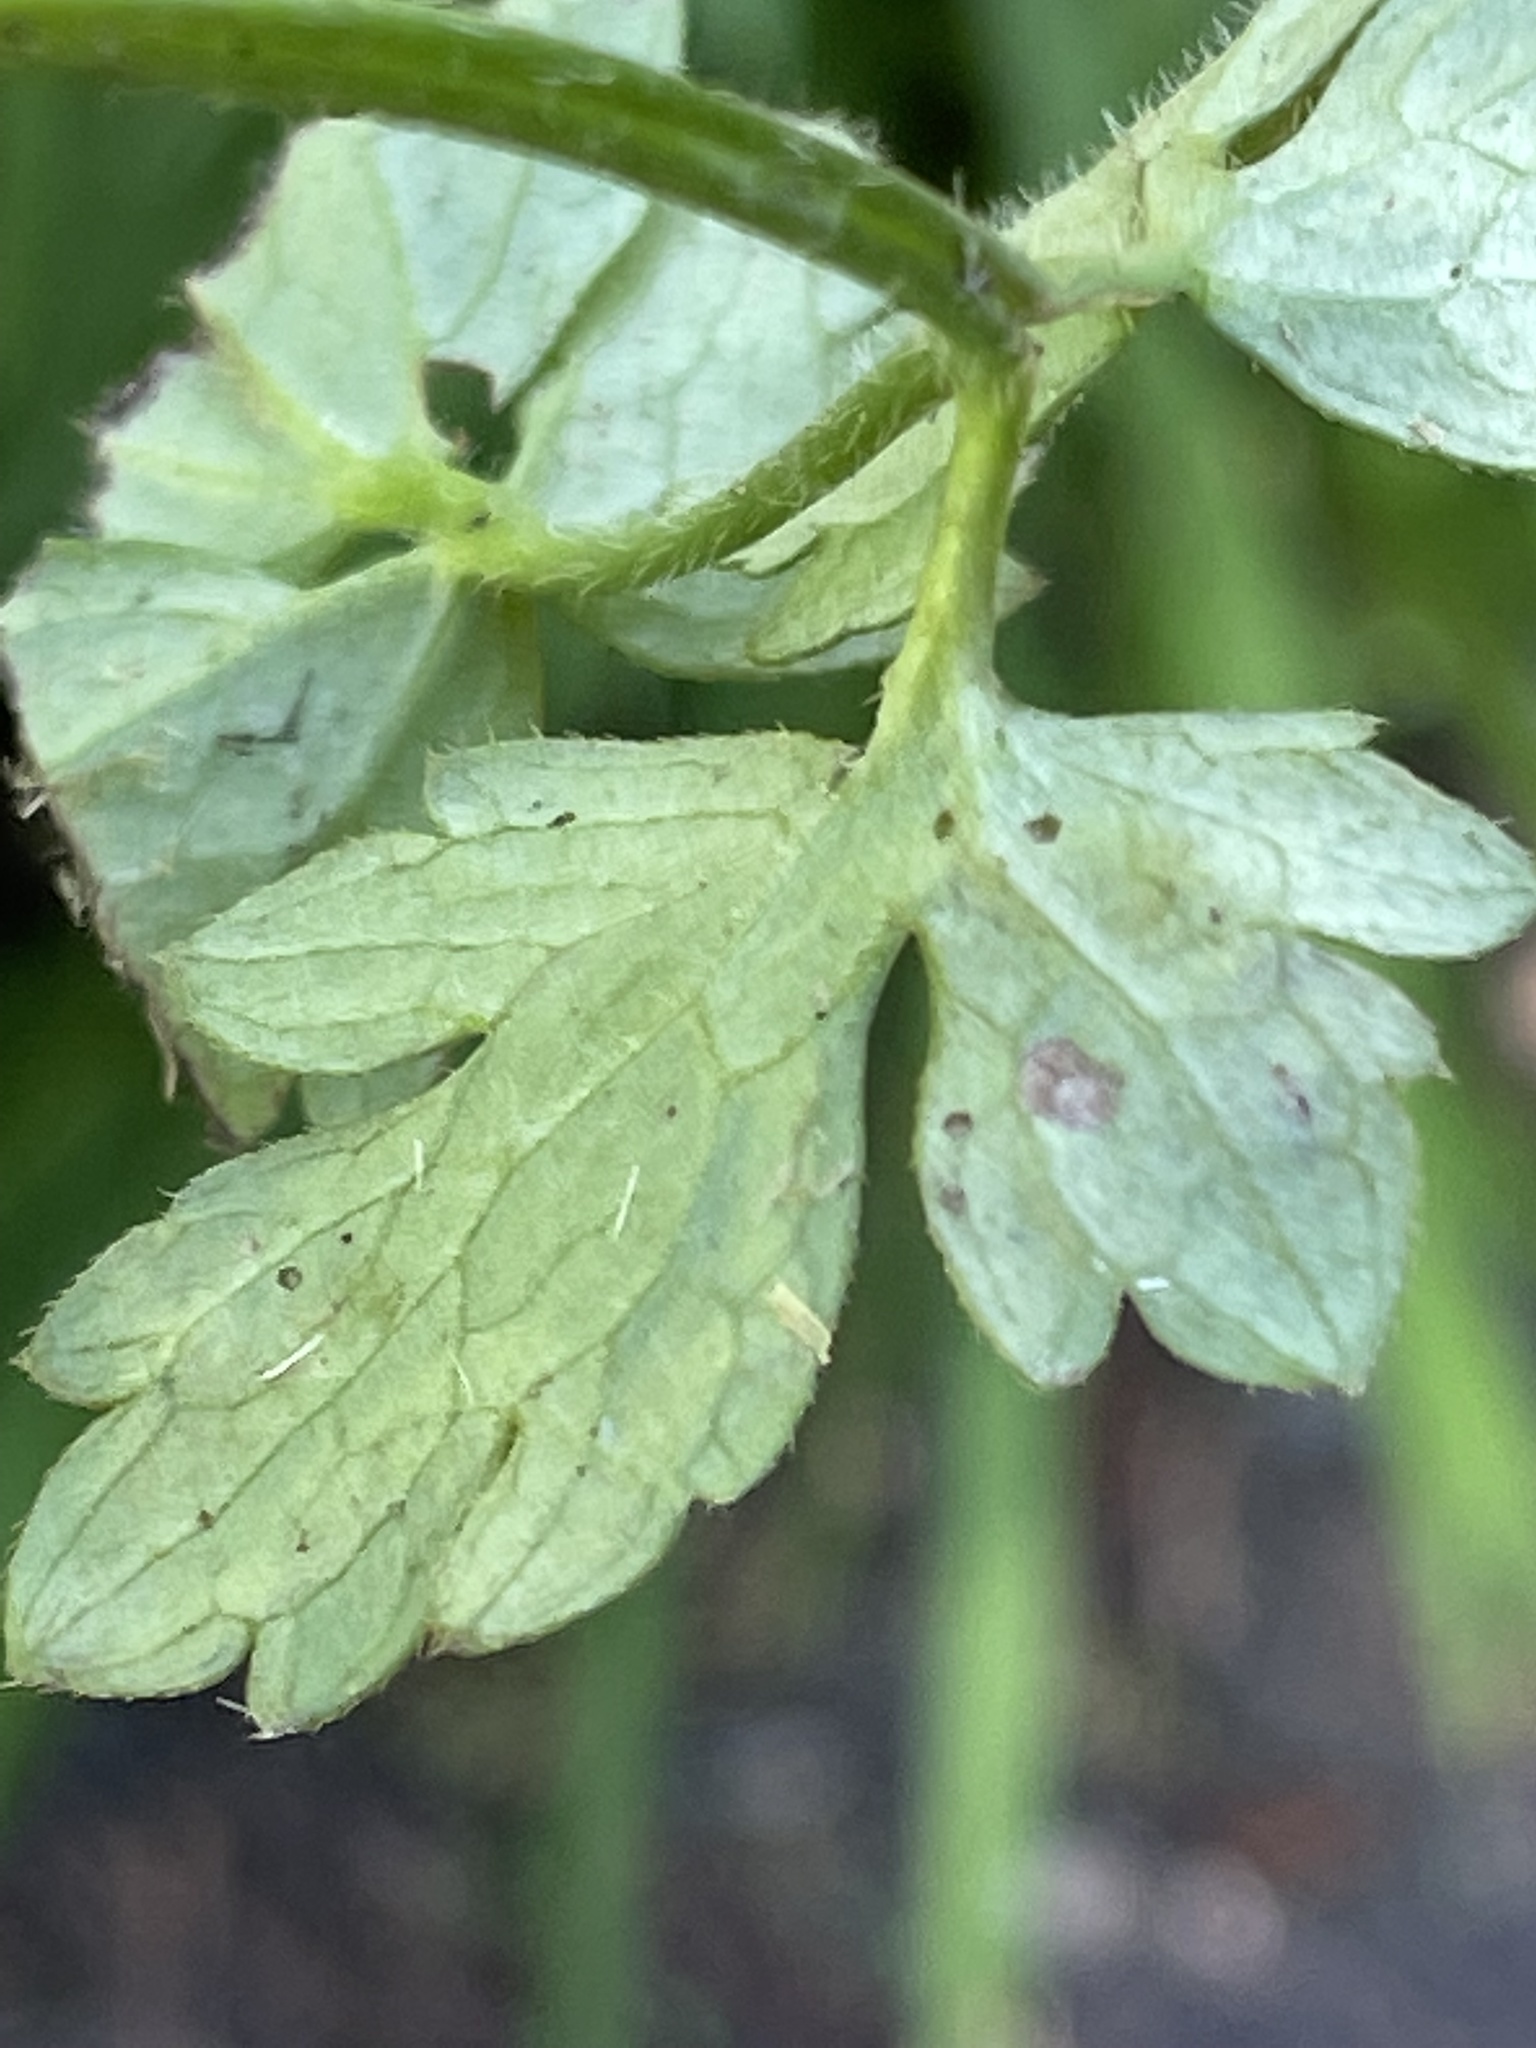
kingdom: Animalia
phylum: Arthropoda
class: Insecta
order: Diptera
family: Agromyzidae
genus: Phytomyza
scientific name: Phytomyza ranunculi
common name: Leaf-miner fly
